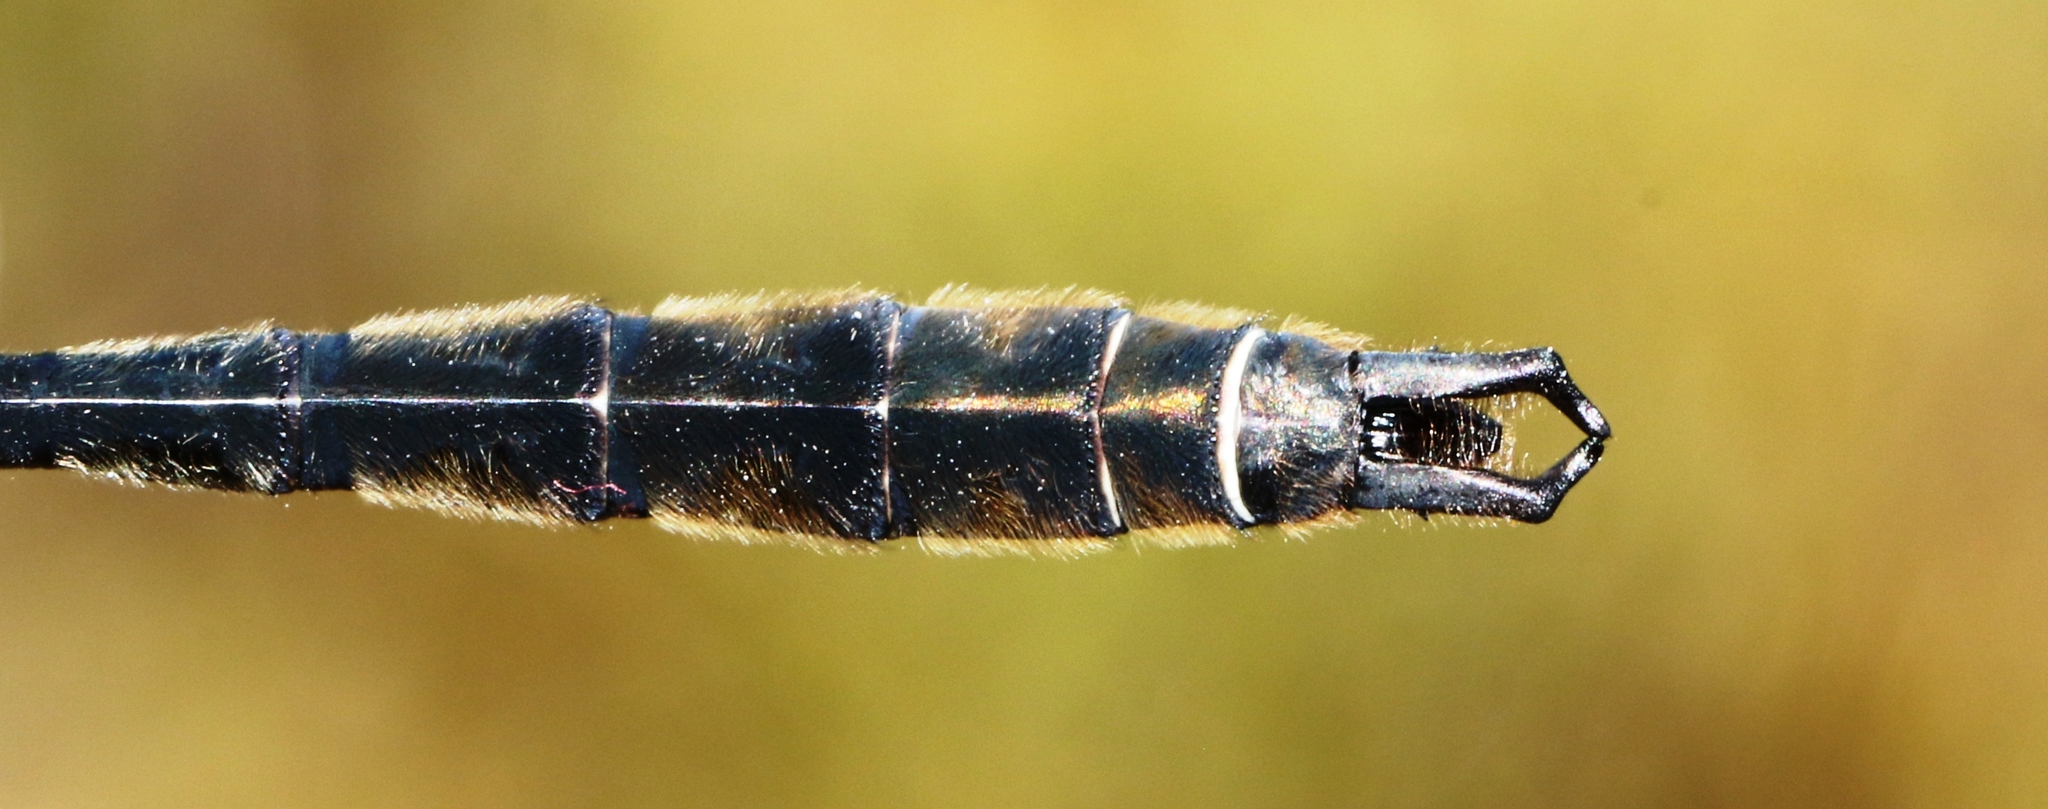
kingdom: Animalia
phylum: Arthropoda
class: Insecta
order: Odonata
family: Corduliidae
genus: Somatochlora
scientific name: Somatochlora septentrionalis
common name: Muskeg emerald
